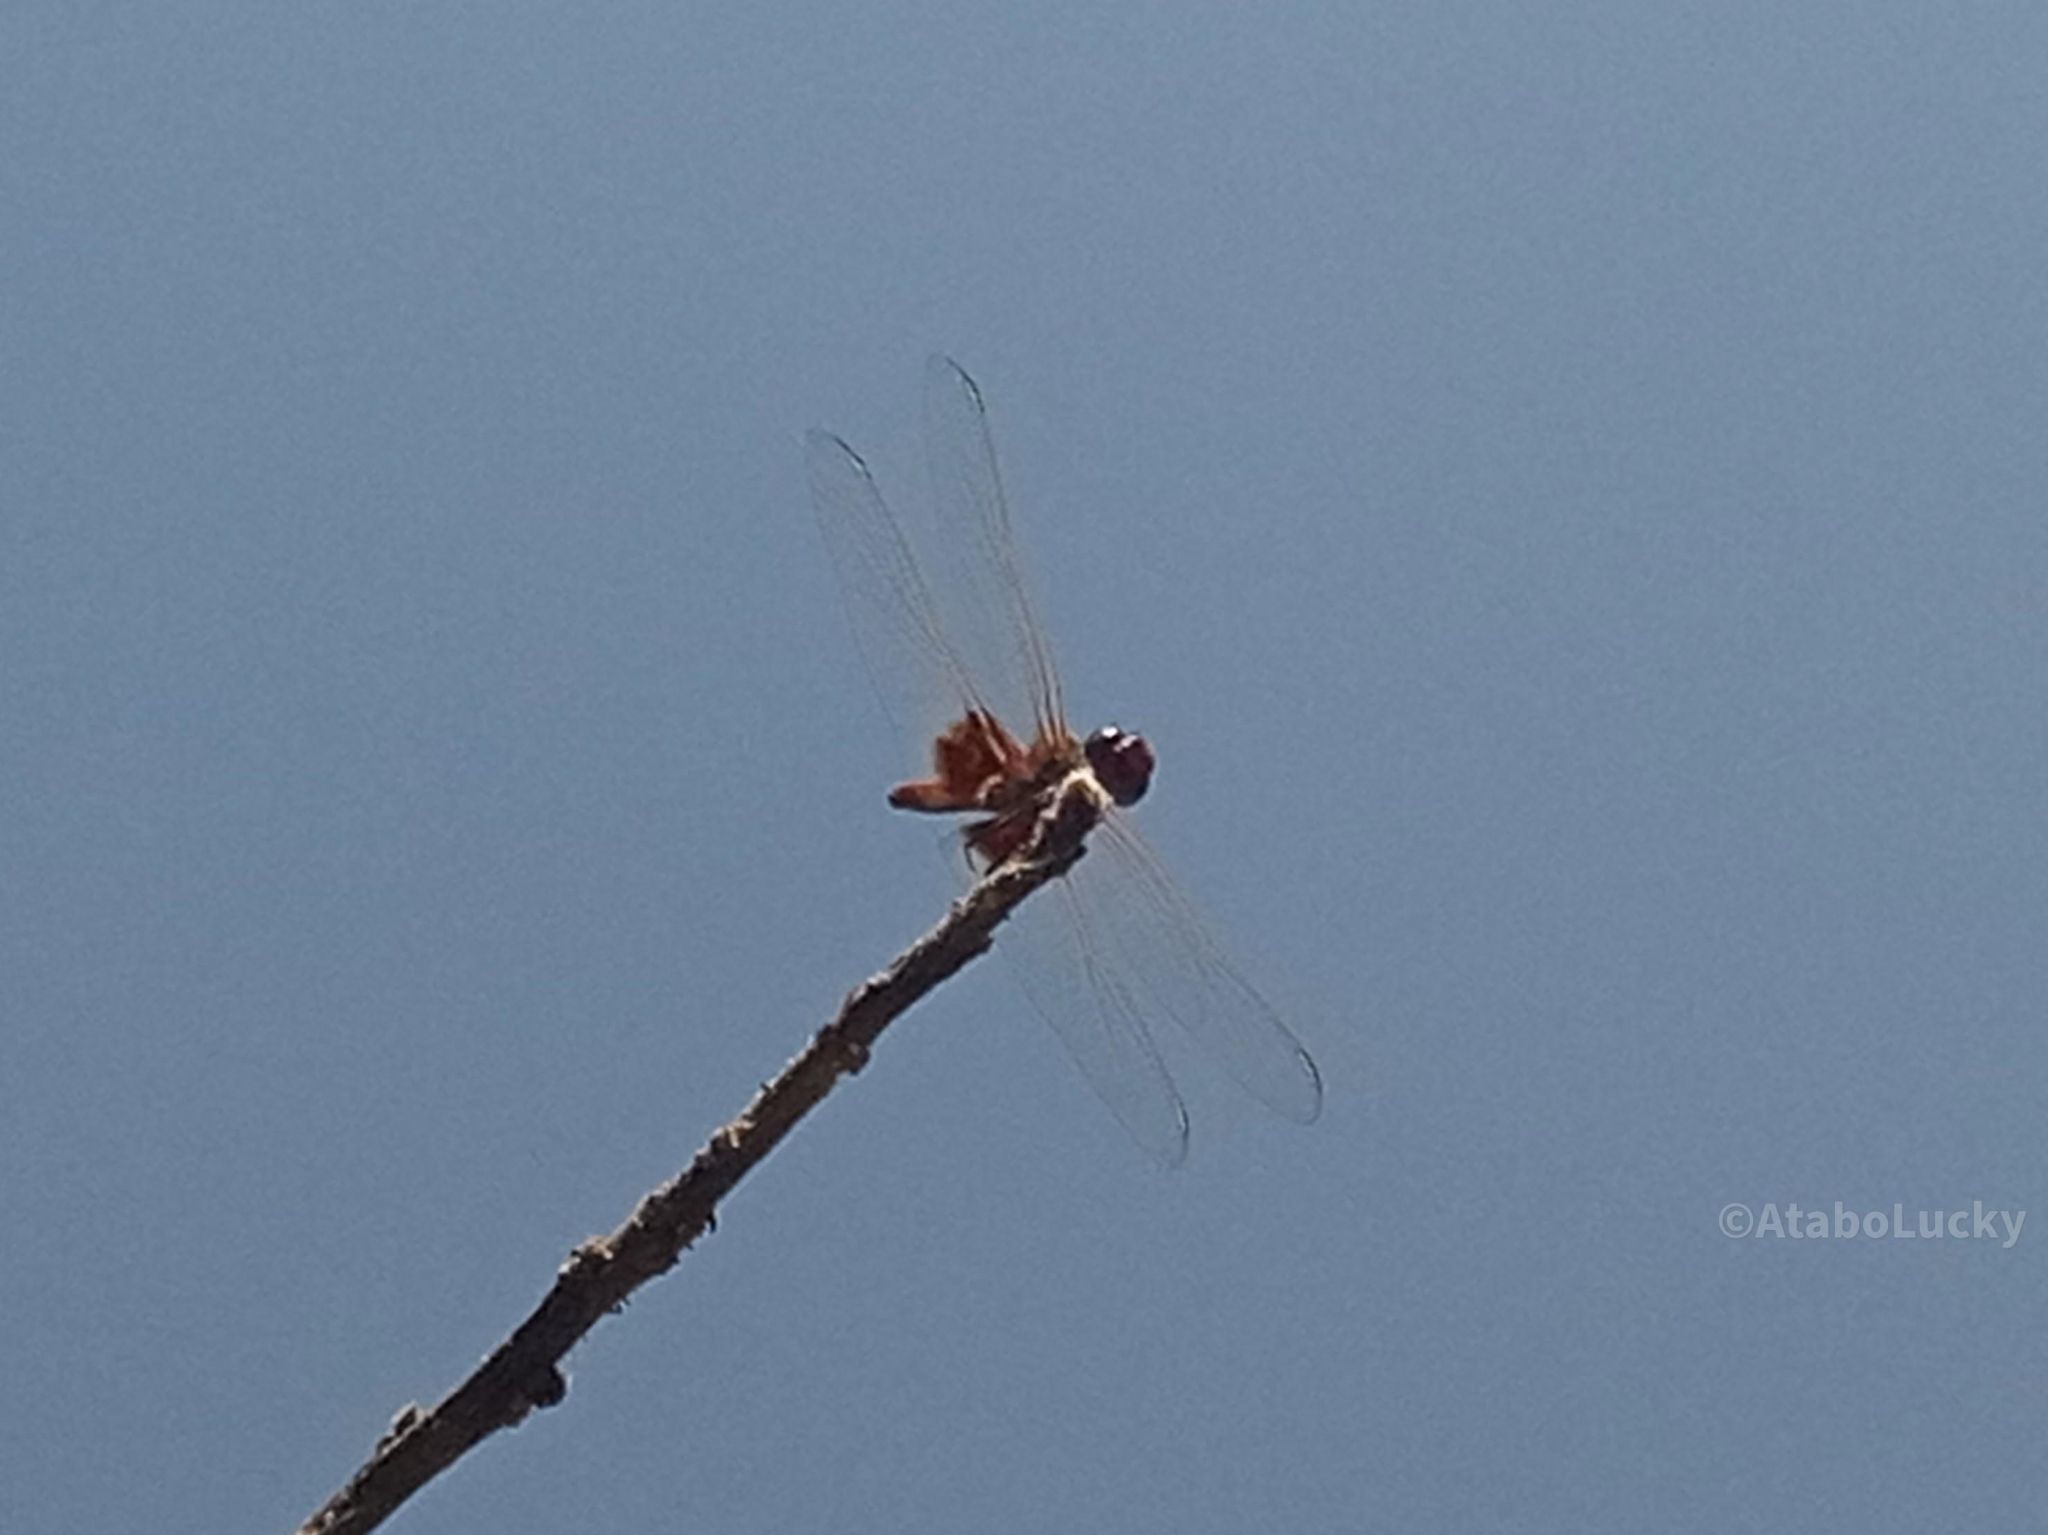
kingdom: Animalia
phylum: Arthropoda
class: Insecta
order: Odonata
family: Libellulidae
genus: Urothemis
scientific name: Urothemis assignata
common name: Red basker
